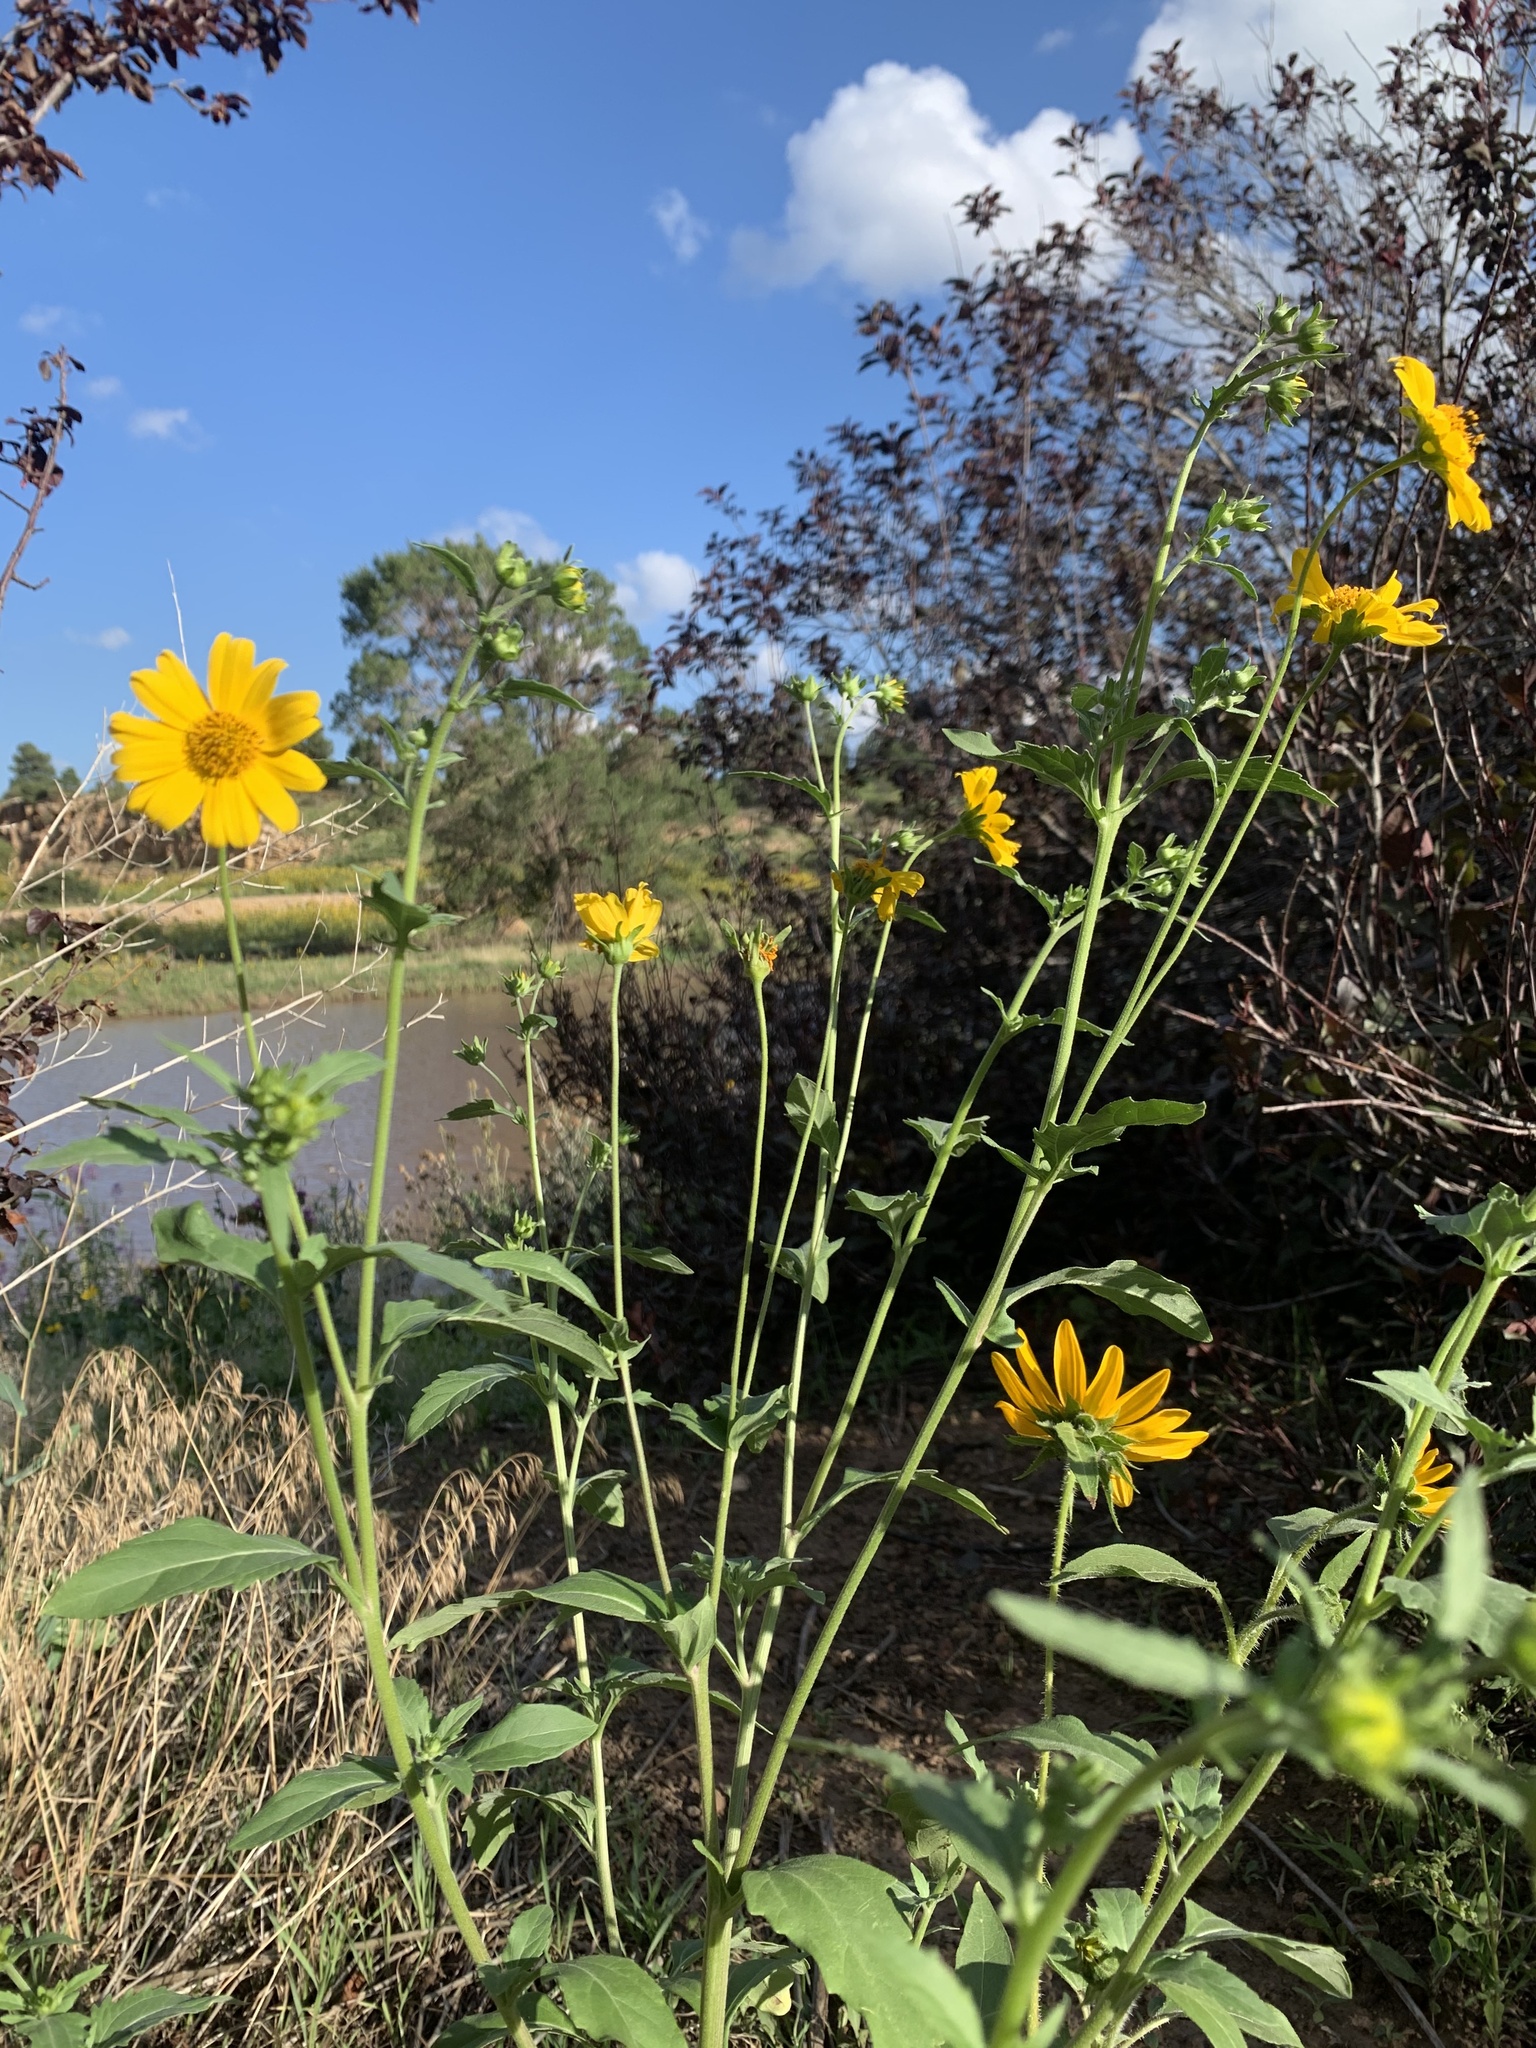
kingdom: Plantae
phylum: Tracheophyta
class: Magnoliopsida
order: Asterales
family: Asteraceae
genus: Helianthus
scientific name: Helianthus annuus
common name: Sunflower
